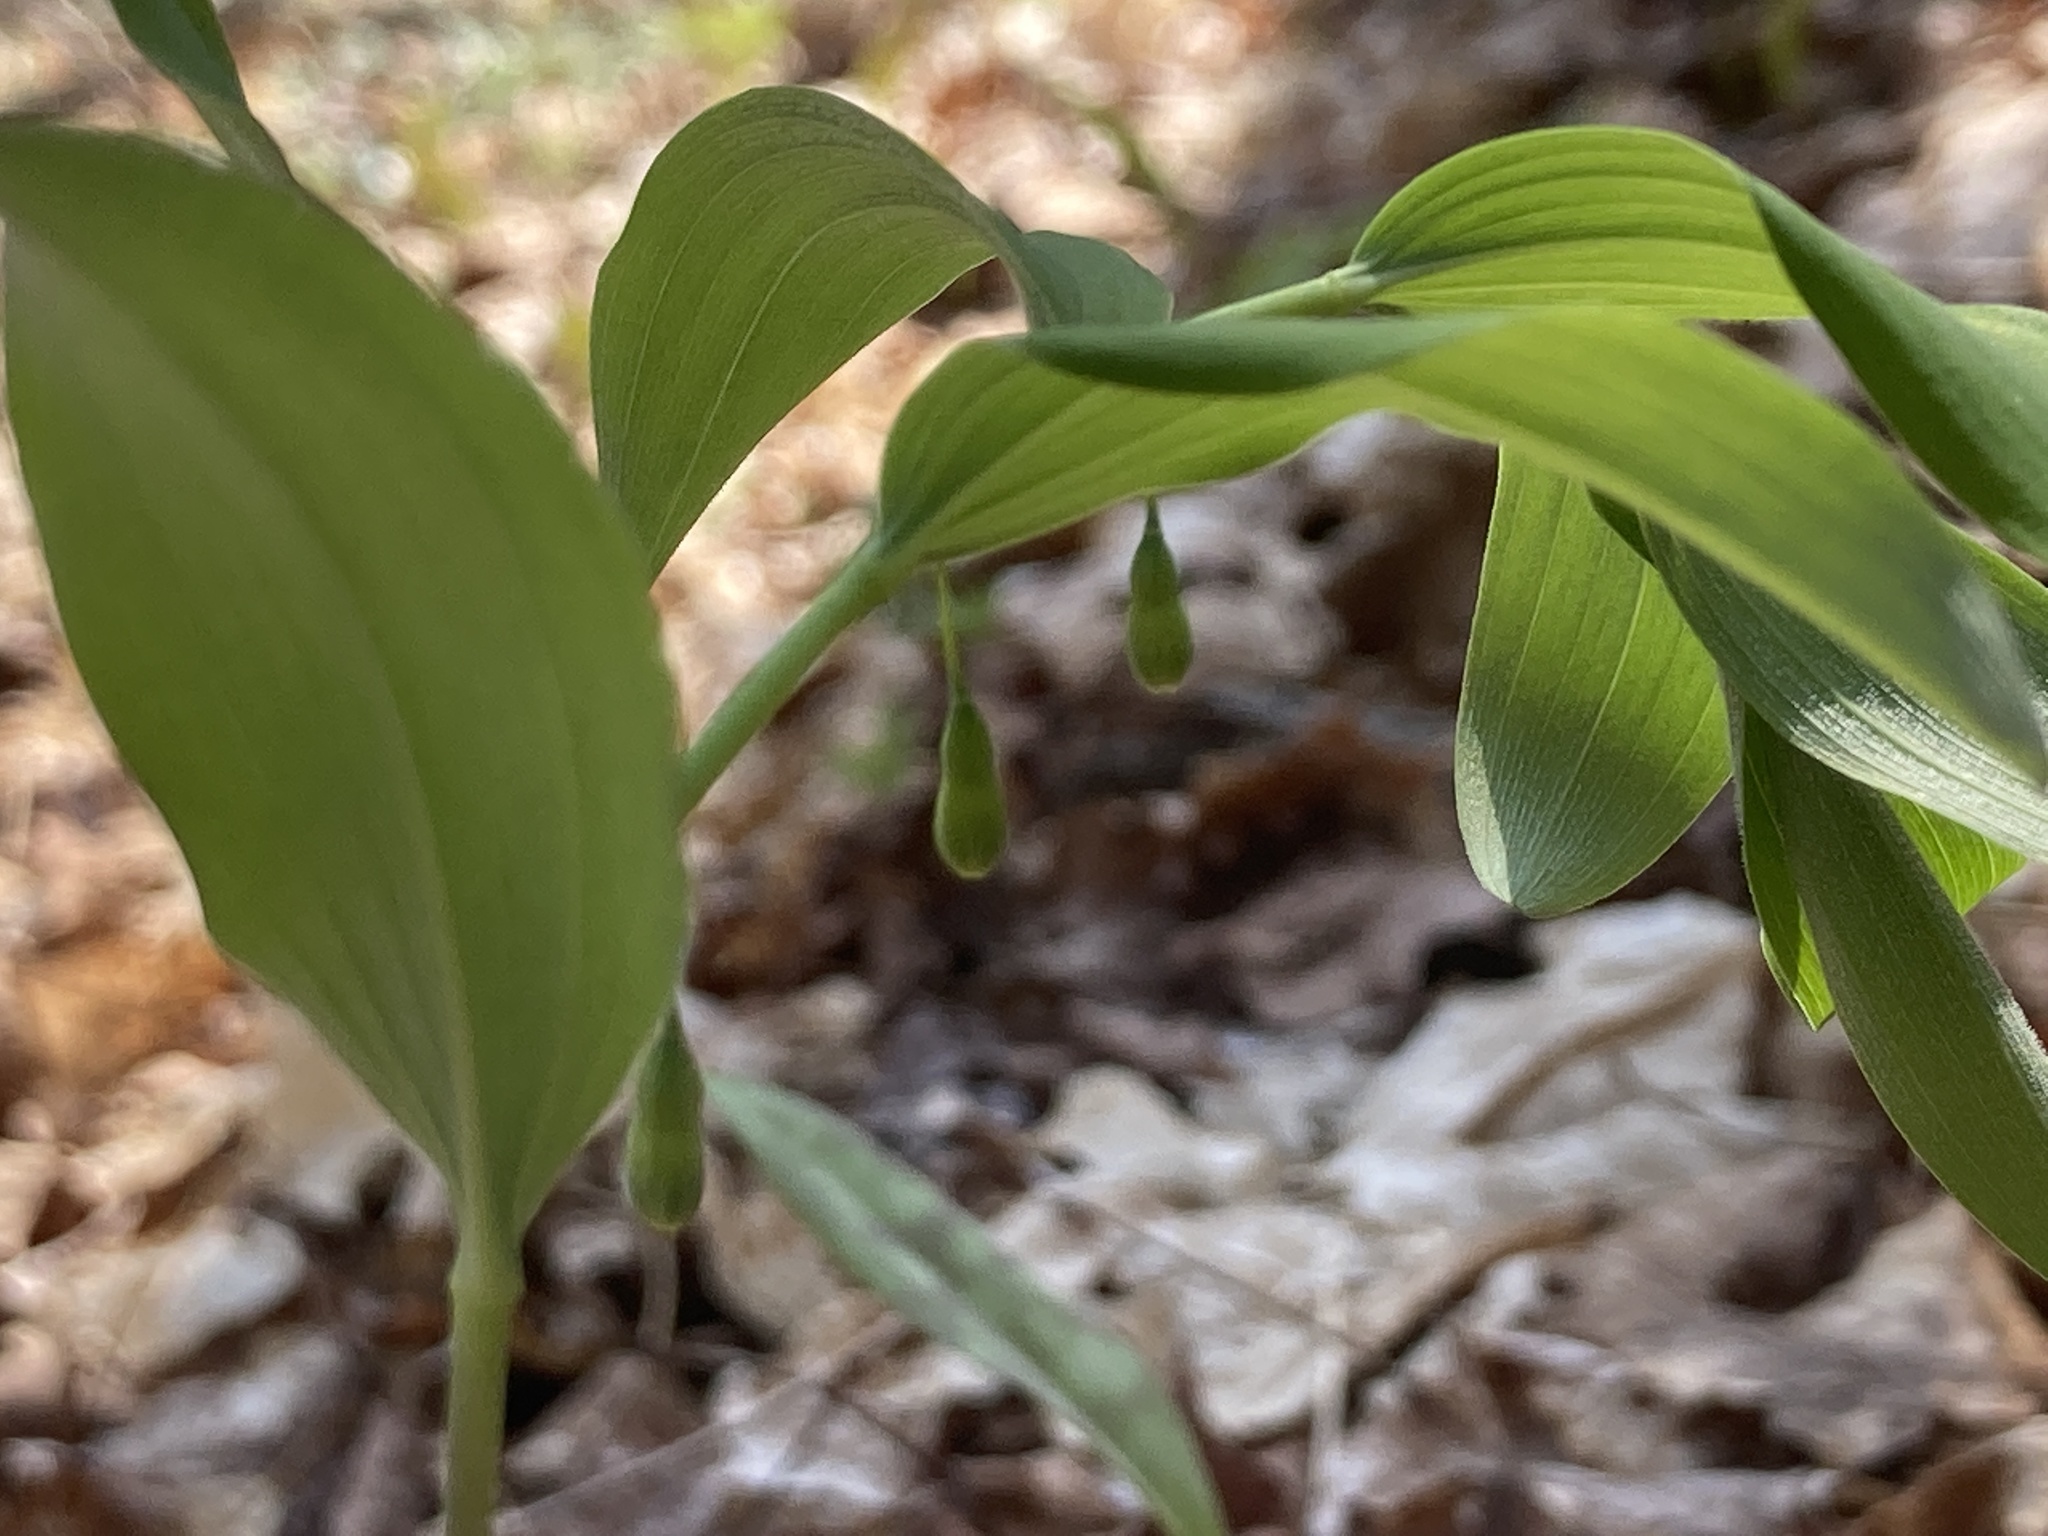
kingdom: Plantae
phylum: Tracheophyta
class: Liliopsida
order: Asparagales
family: Asparagaceae
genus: Polygonatum
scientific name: Polygonatum pubescens
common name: Downy solomon's seal
